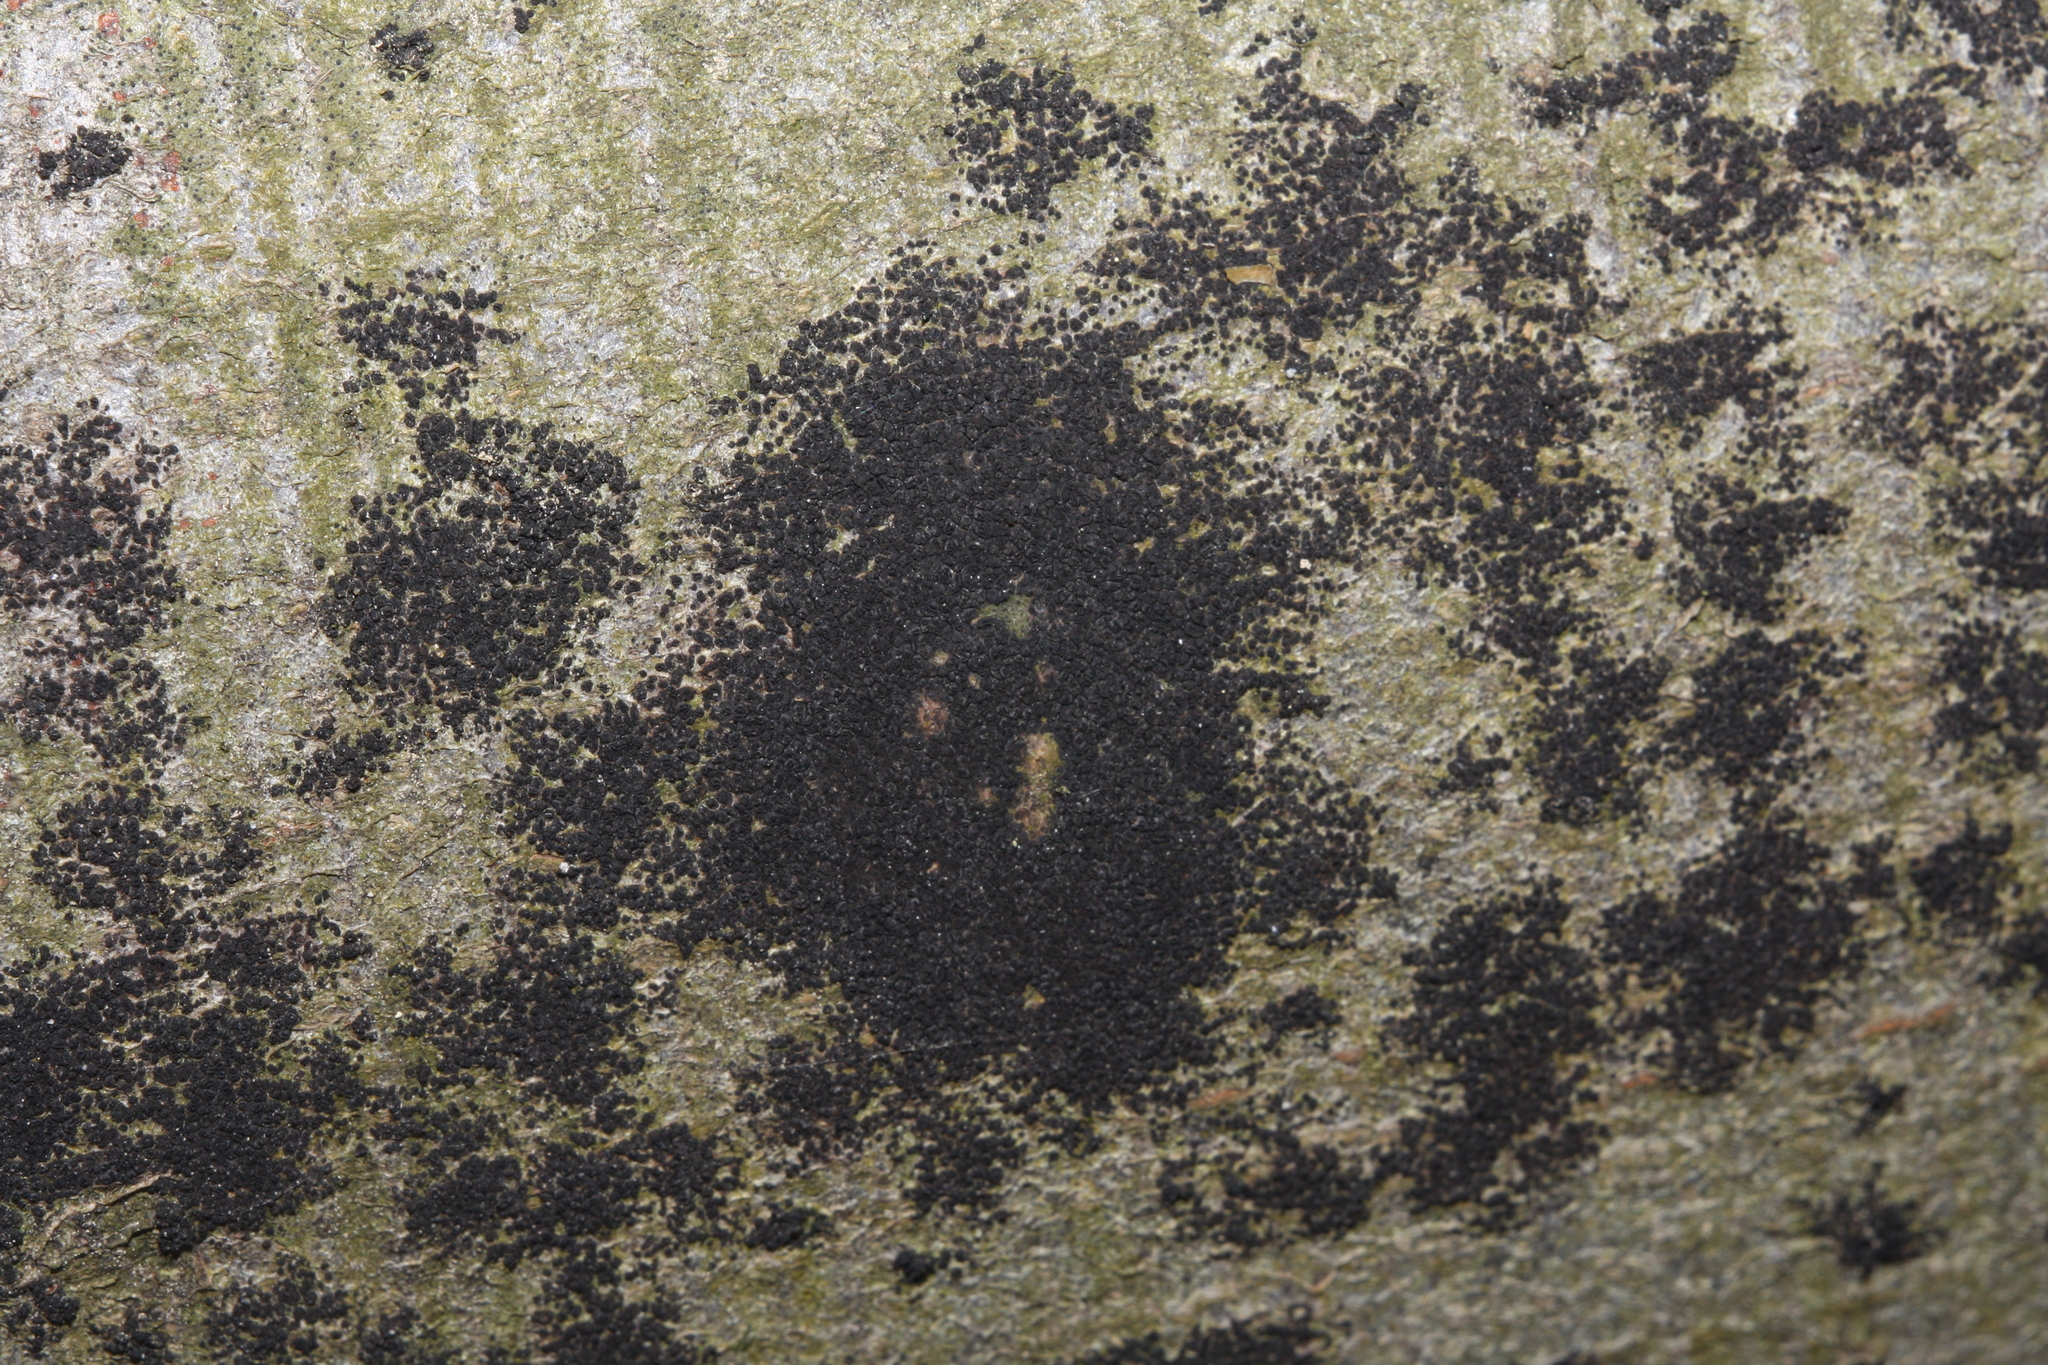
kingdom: Fungi
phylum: Ascomycota
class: Leotiomycetes
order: Rhytismatales
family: Ascodichaenaceae
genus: Ascodichaena
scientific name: Ascodichaena rugosa
